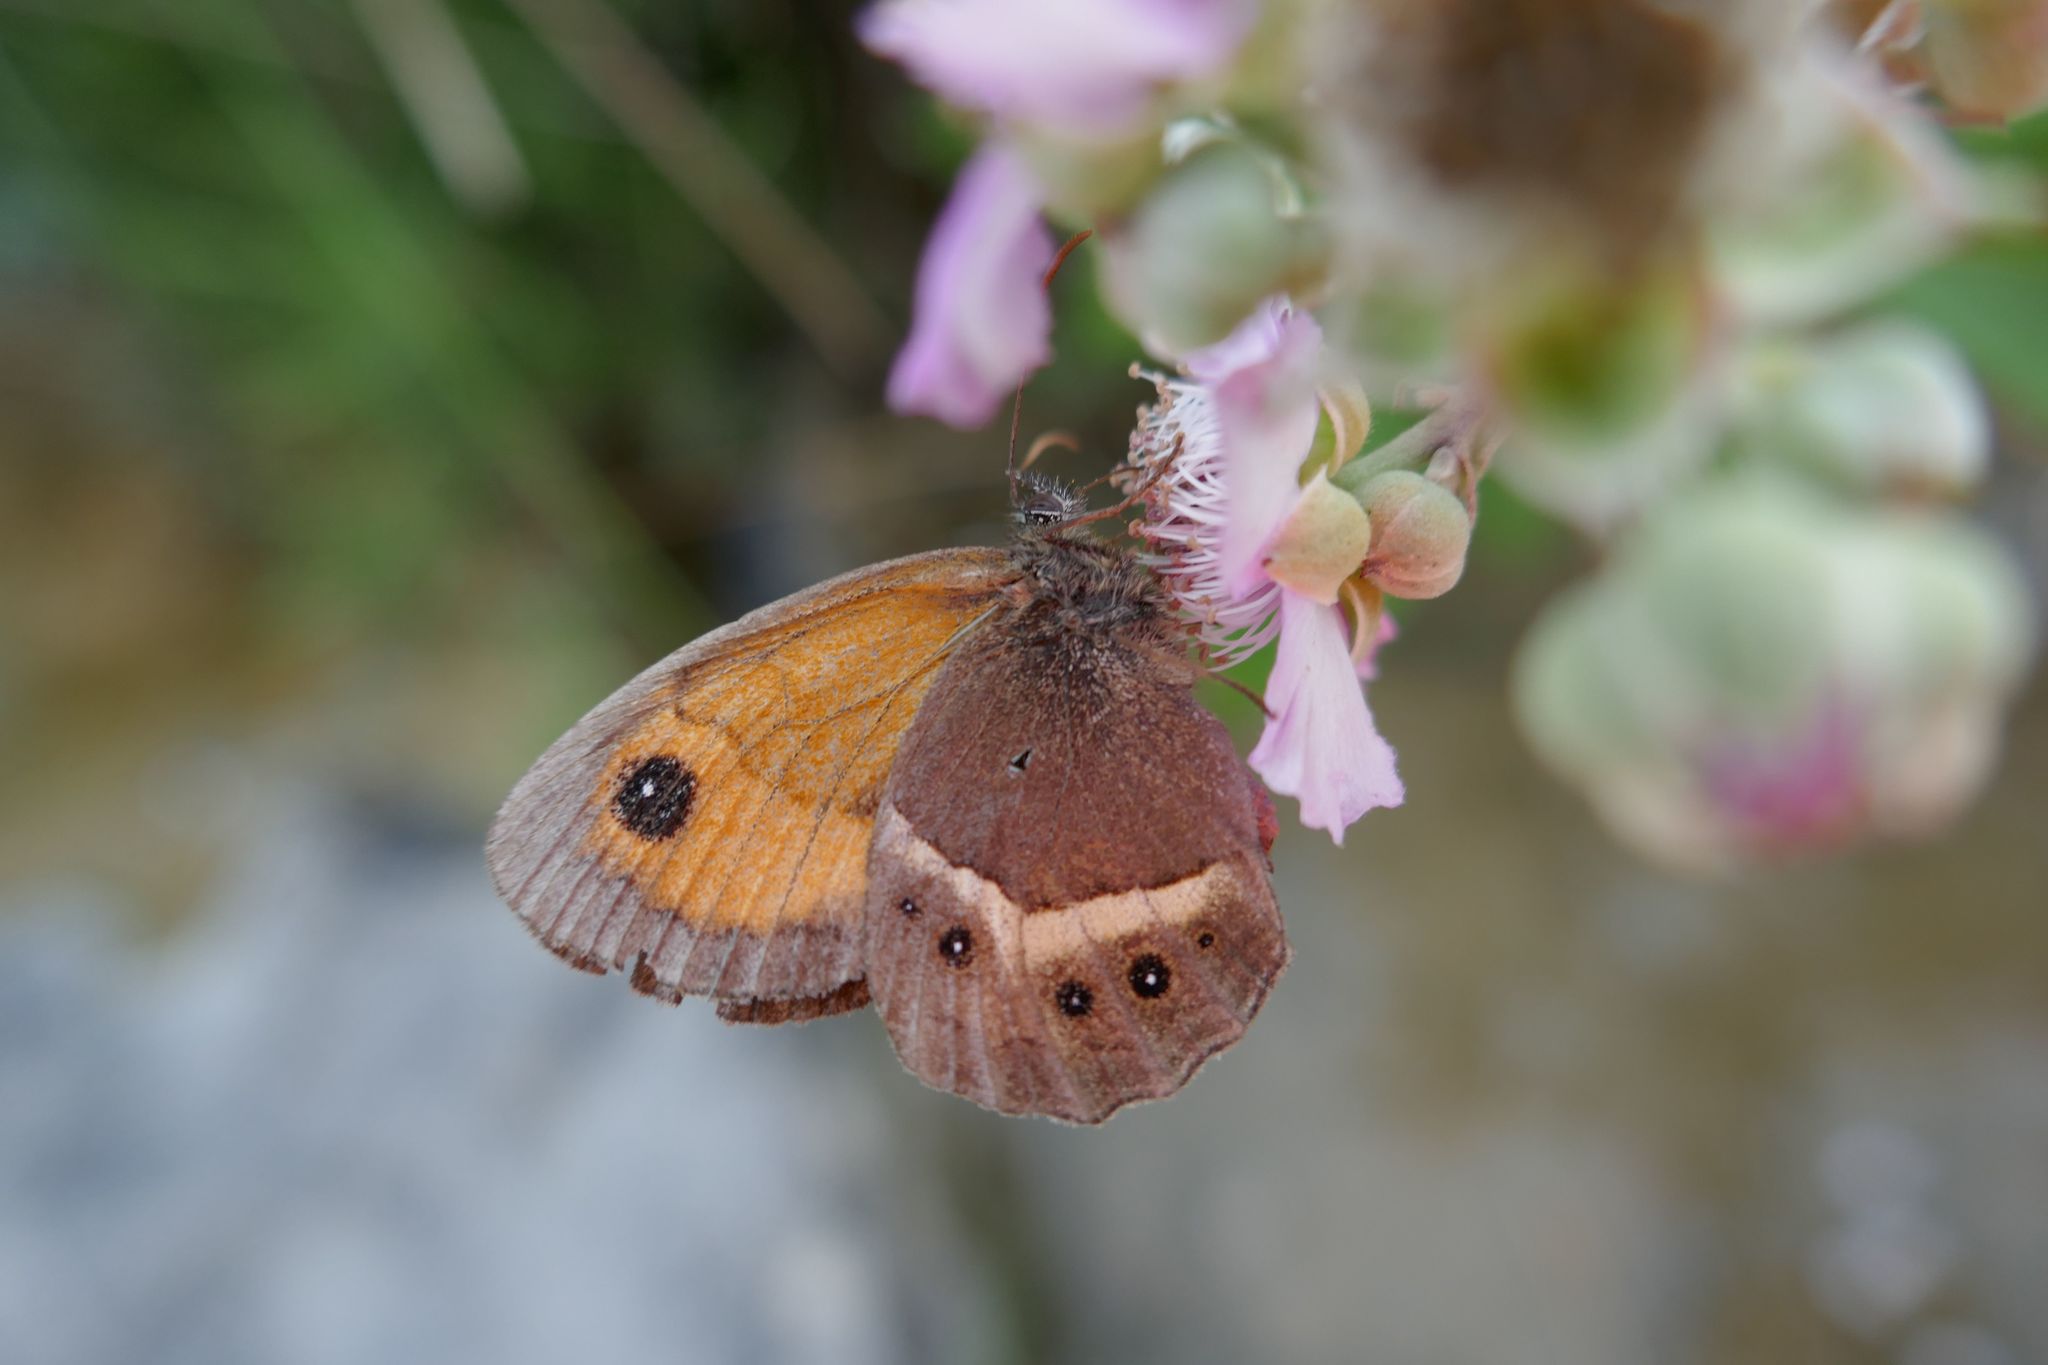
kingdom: Animalia
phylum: Arthropoda
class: Insecta
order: Lepidoptera
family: Nymphalidae
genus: Pyronia
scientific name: Pyronia bathseba
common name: Spanish gatekeeper
